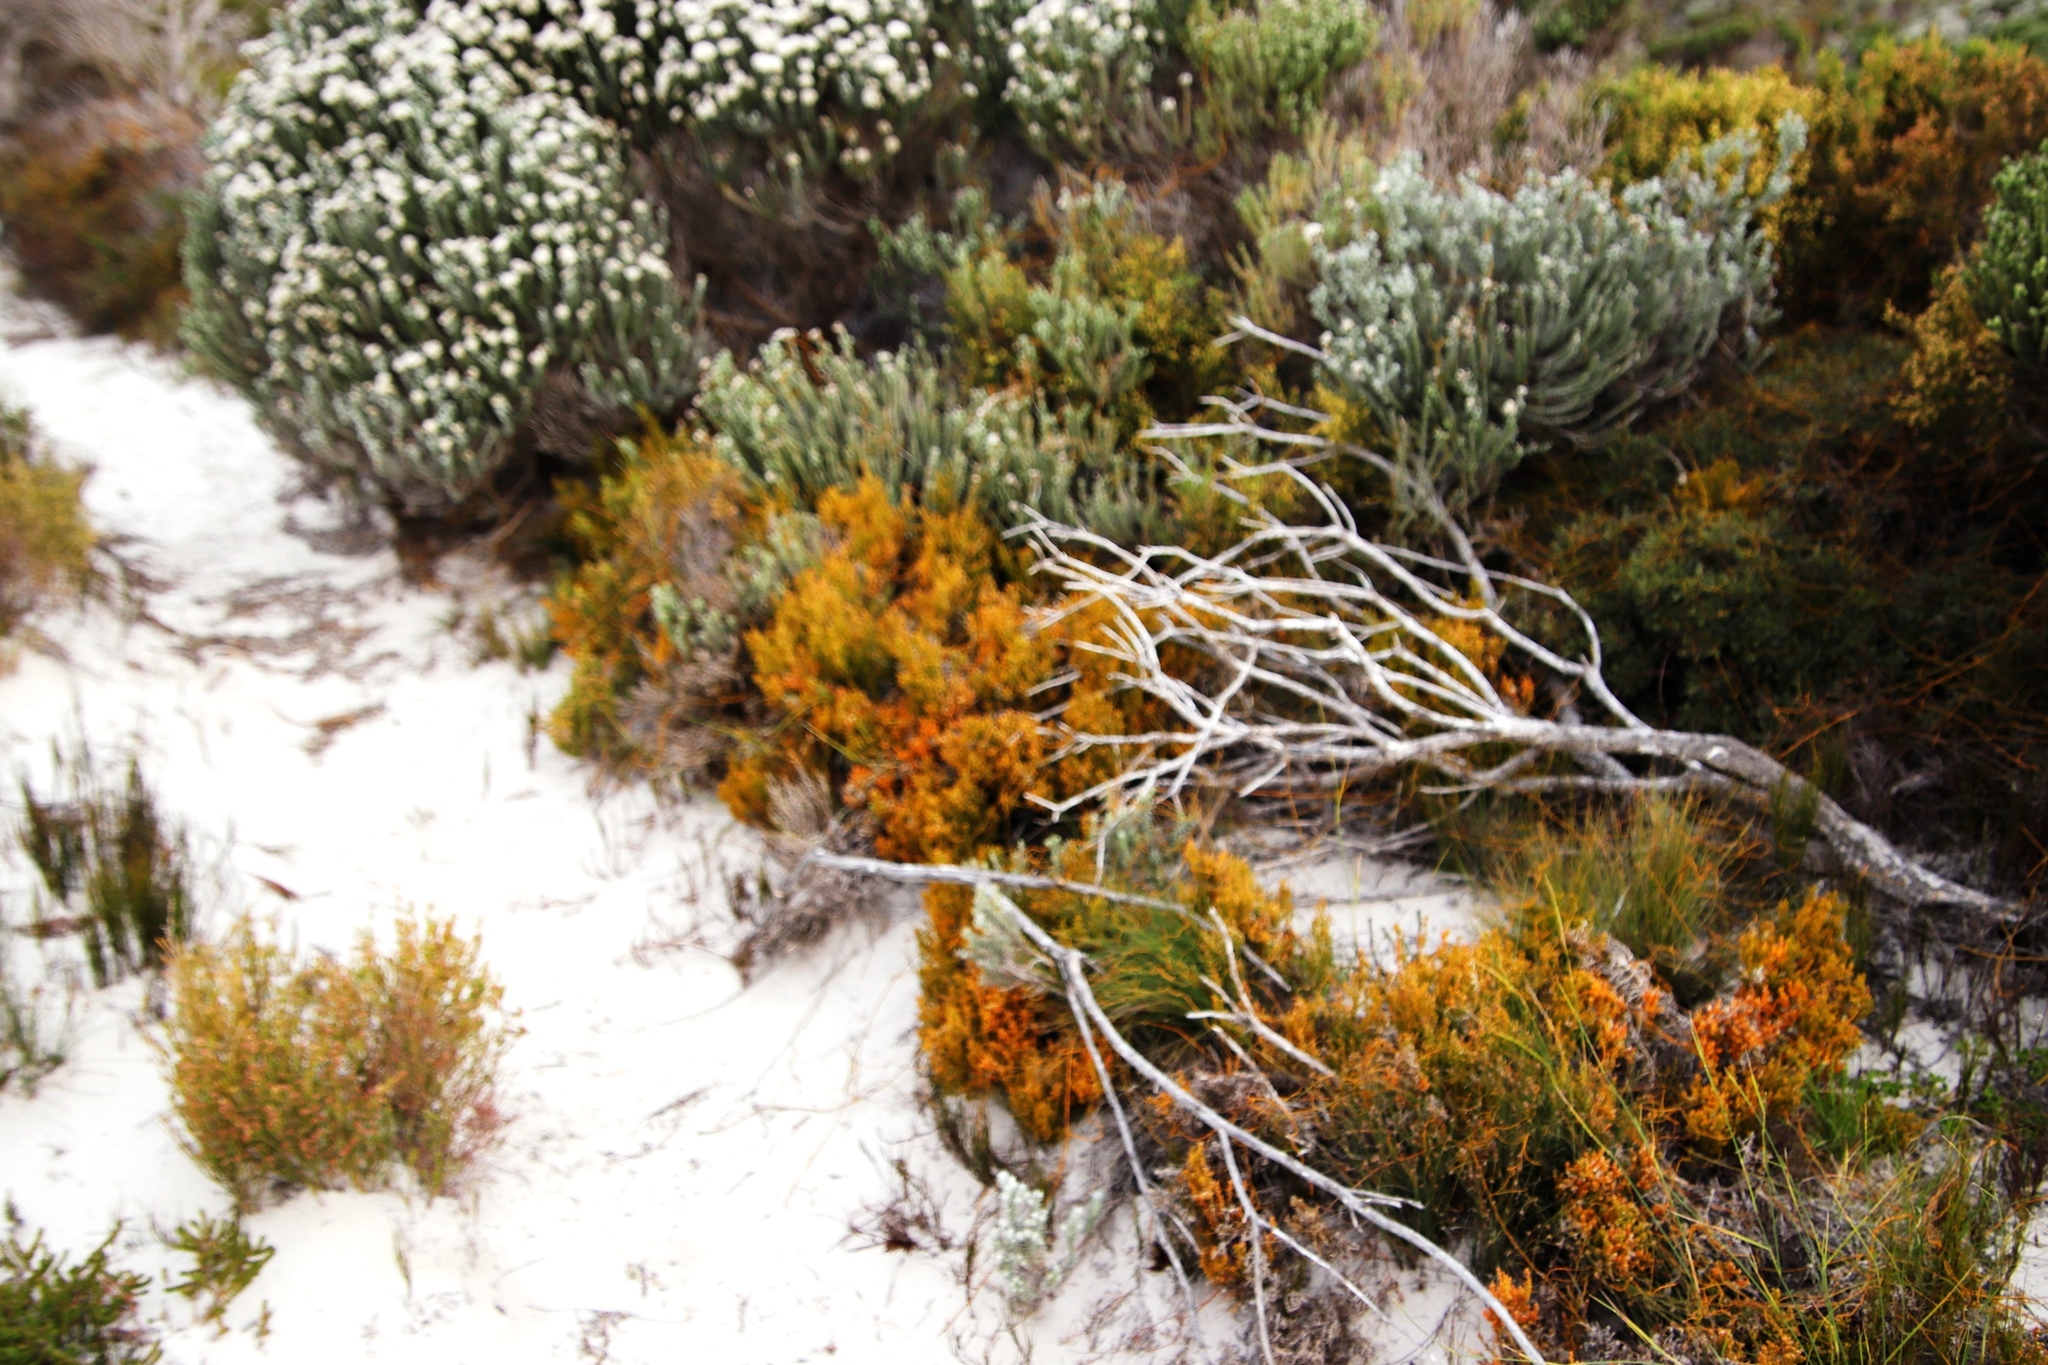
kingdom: Plantae
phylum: Tracheophyta
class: Magnoliopsida
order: Santalales
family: Thesiaceae
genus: Thesium
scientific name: Thesium fragile
